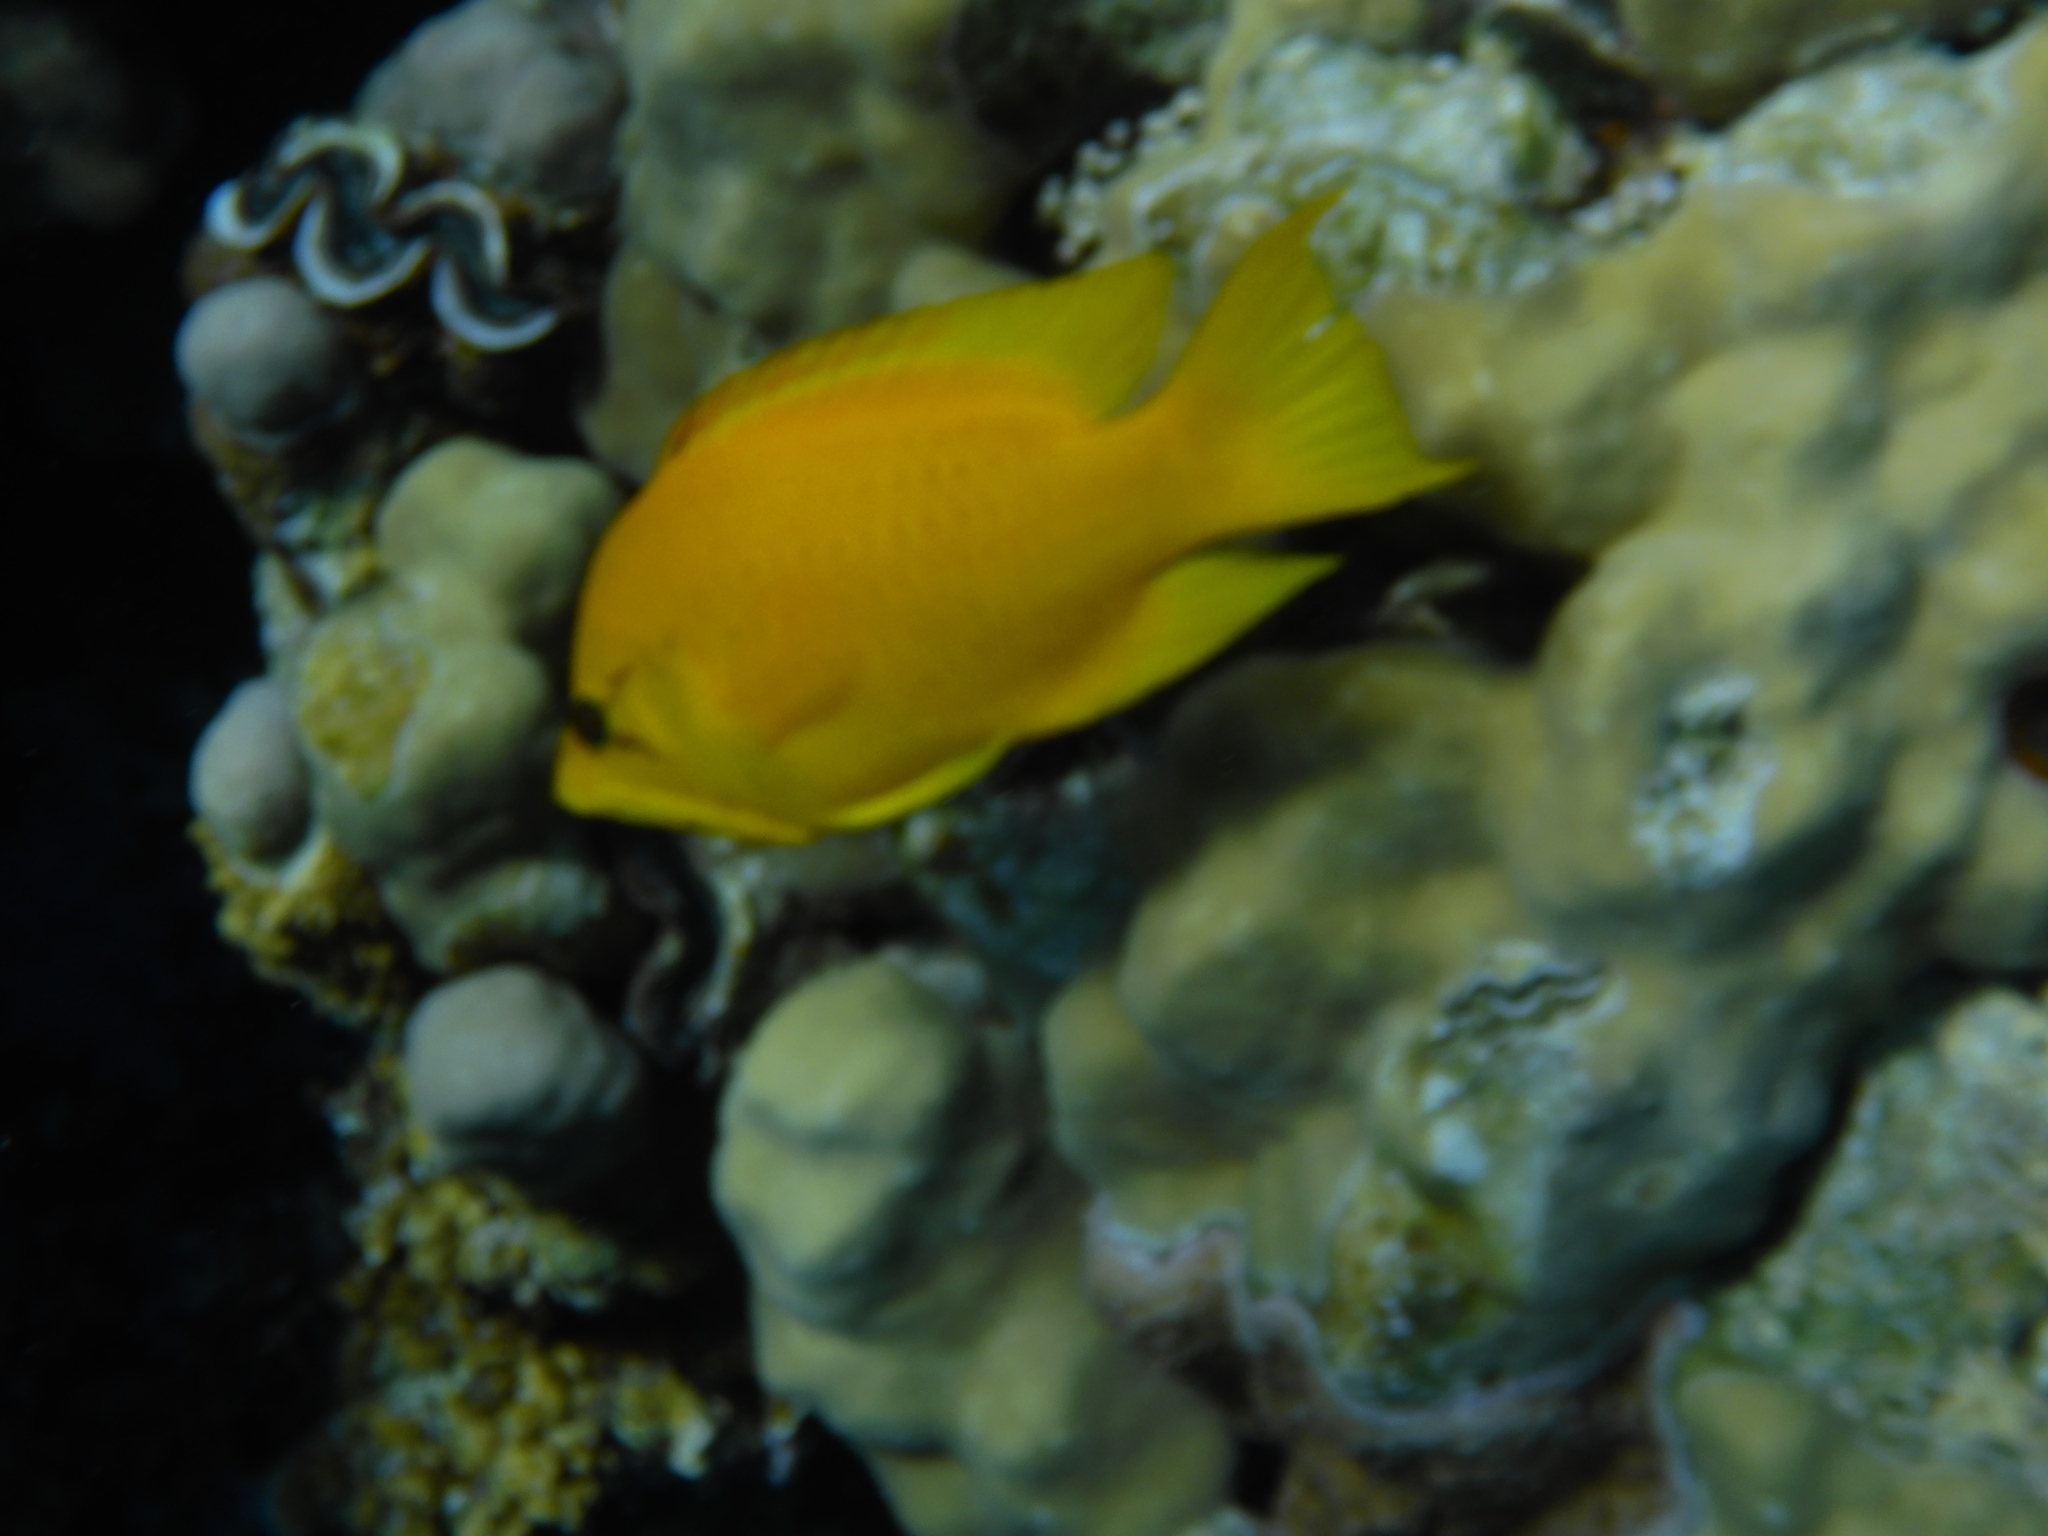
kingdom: Animalia
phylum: Chordata
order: Perciformes
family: Labridae
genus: Epibulus
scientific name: Epibulus insidiator
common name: Slingjaw wrasse
